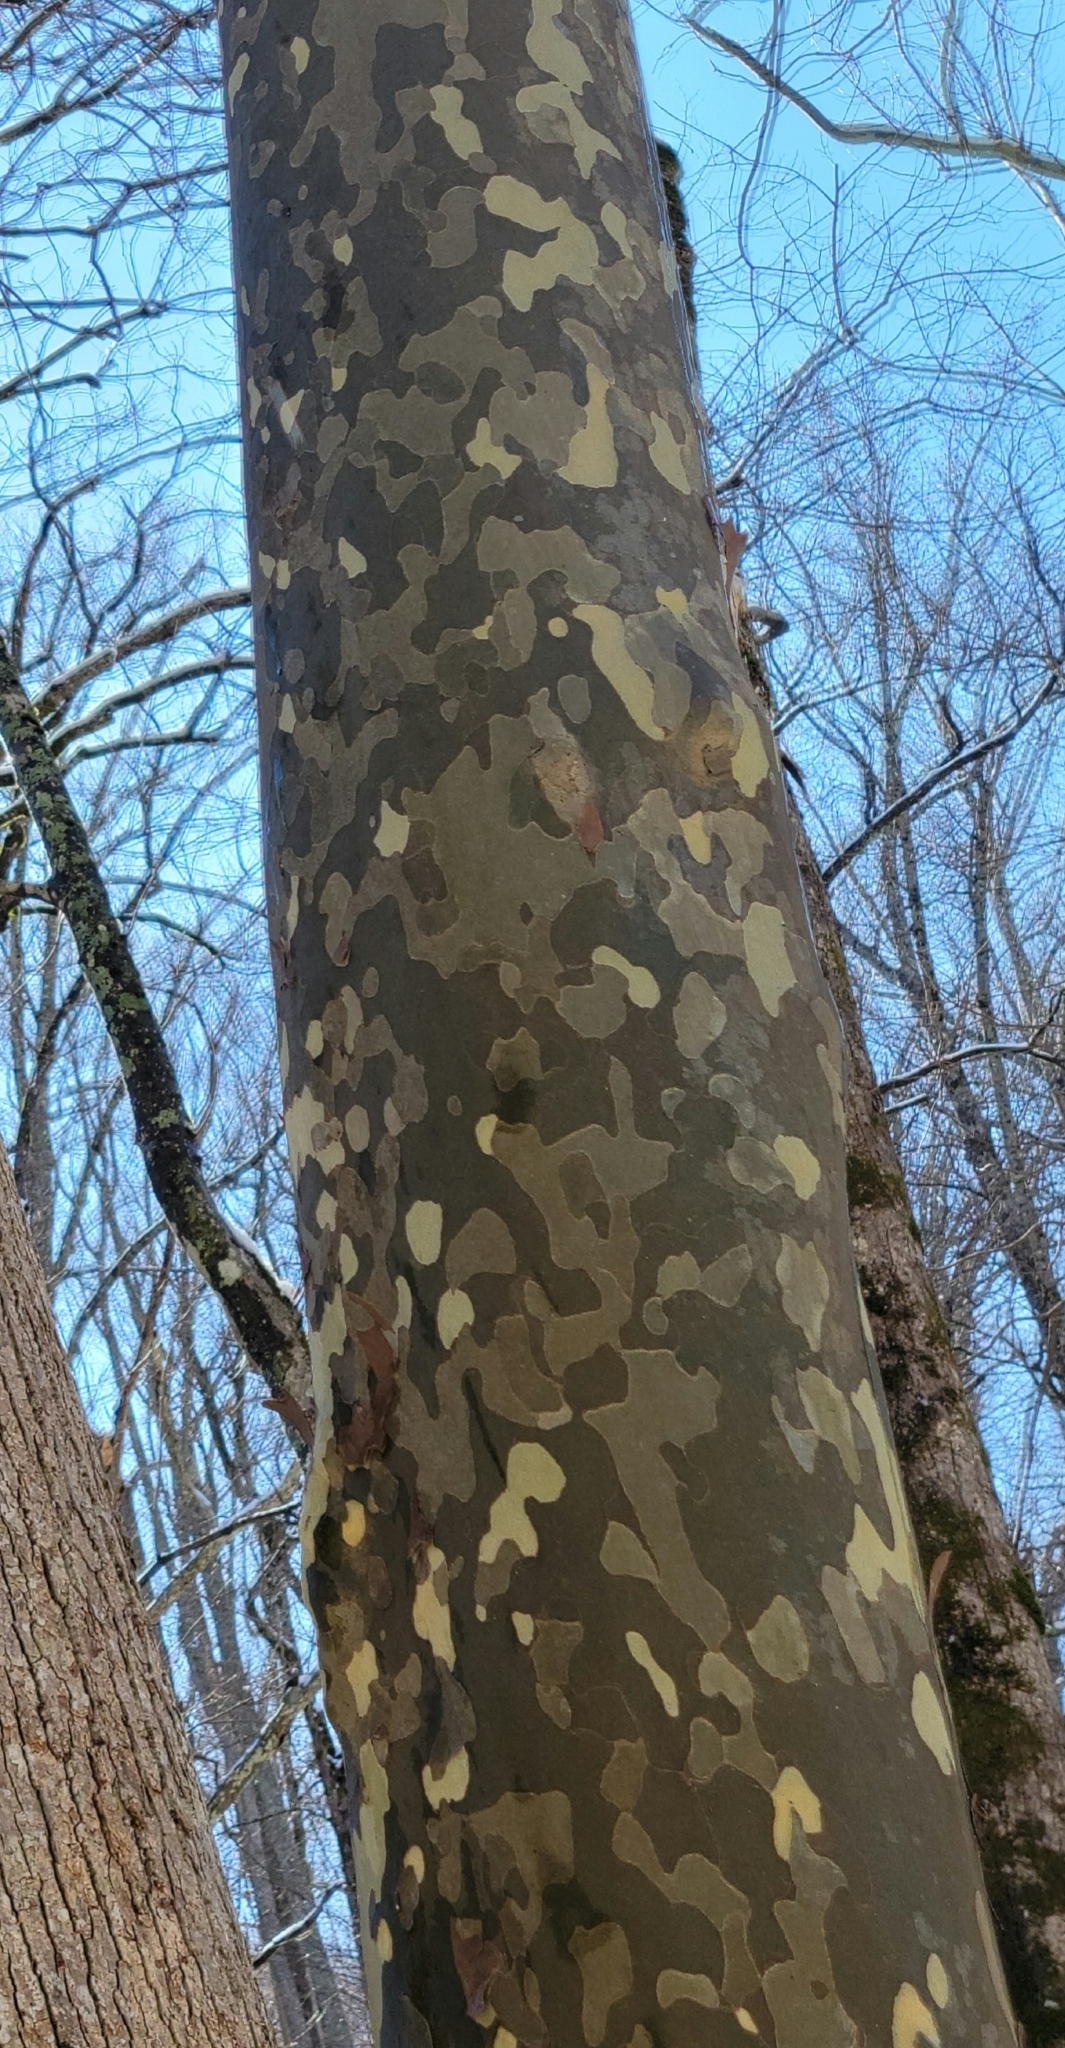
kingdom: Plantae
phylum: Tracheophyta
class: Magnoliopsida
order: Proteales
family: Platanaceae
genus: Platanus
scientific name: Platanus occidentalis
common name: American sycamore
